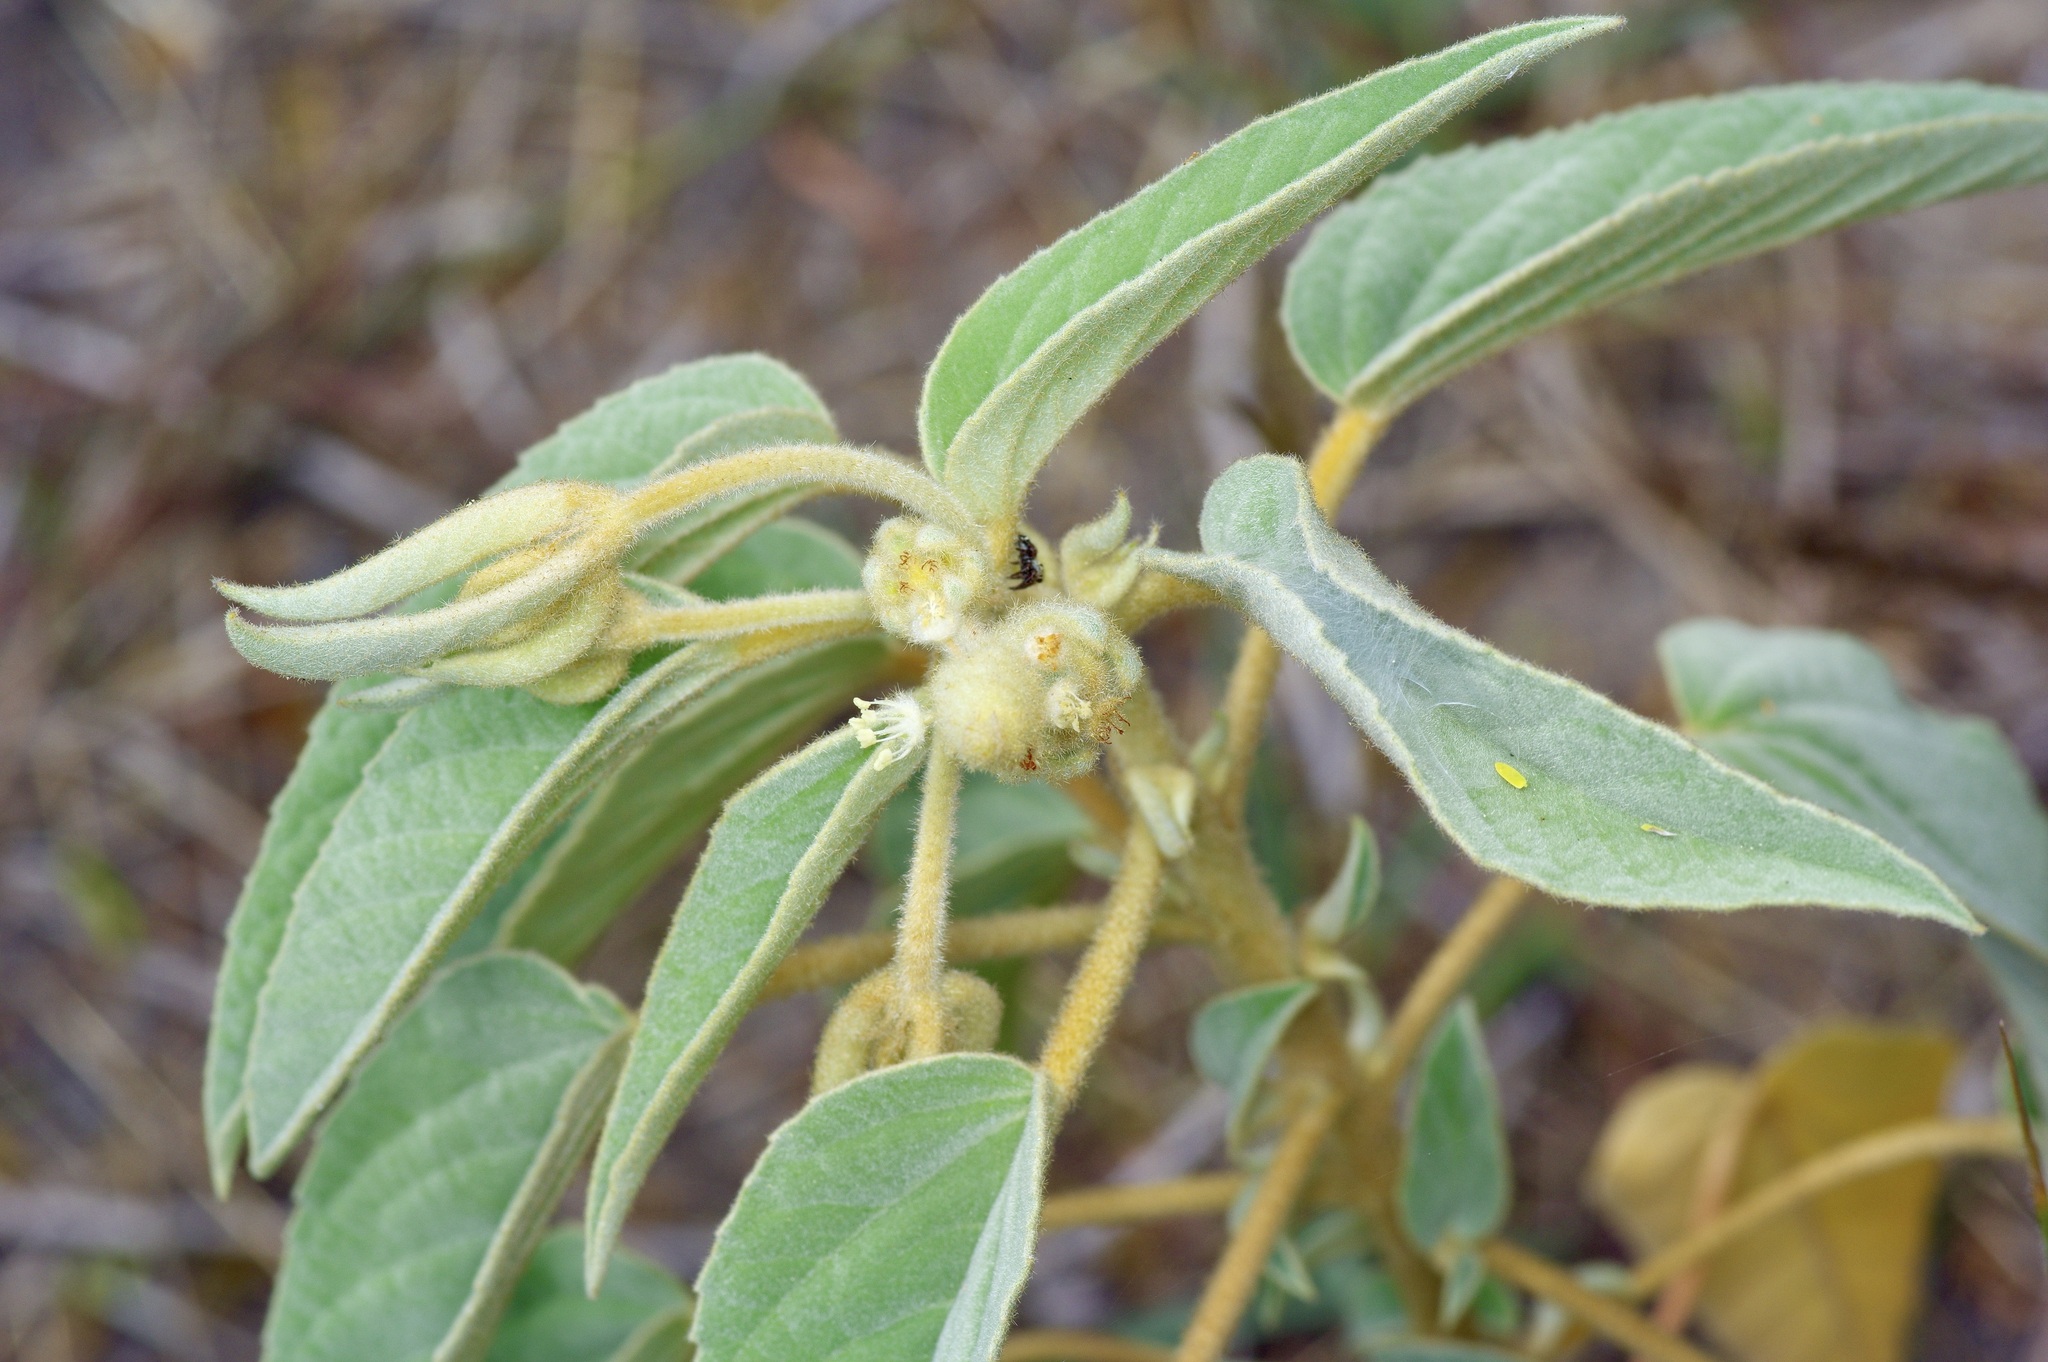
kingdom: Plantae
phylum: Tracheophyta
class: Magnoliopsida
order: Malpighiales
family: Euphorbiaceae
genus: Croton
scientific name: Croton lindheimeri
